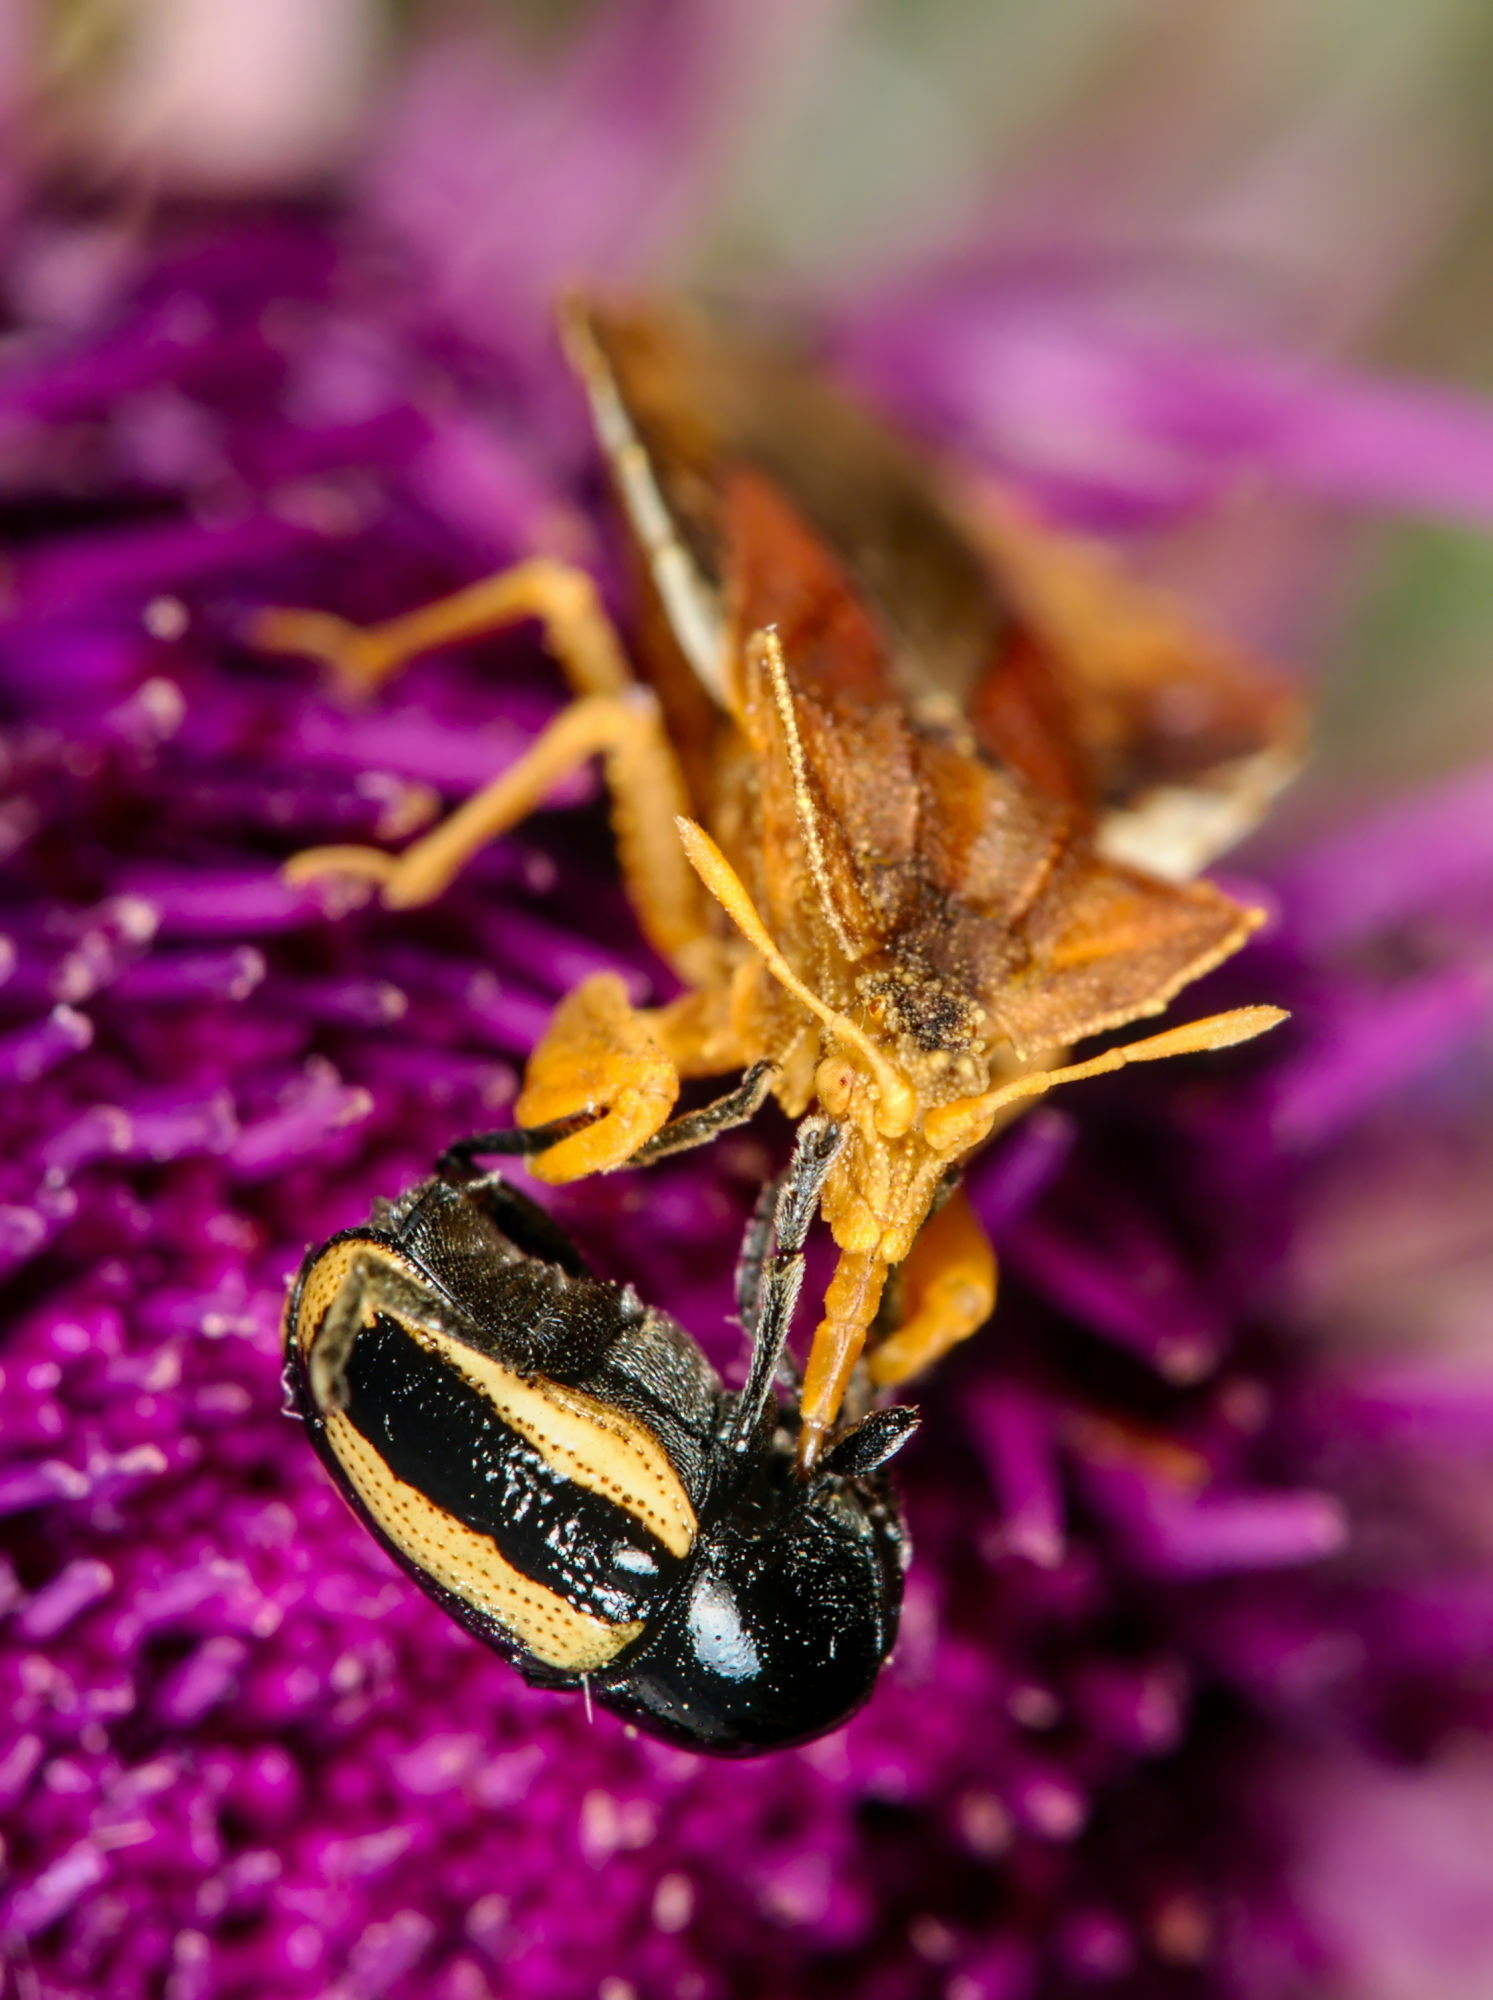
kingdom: Animalia
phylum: Arthropoda
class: Insecta
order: Hemiptera
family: Reduviidae
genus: Phymata
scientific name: Phymata crassipes
